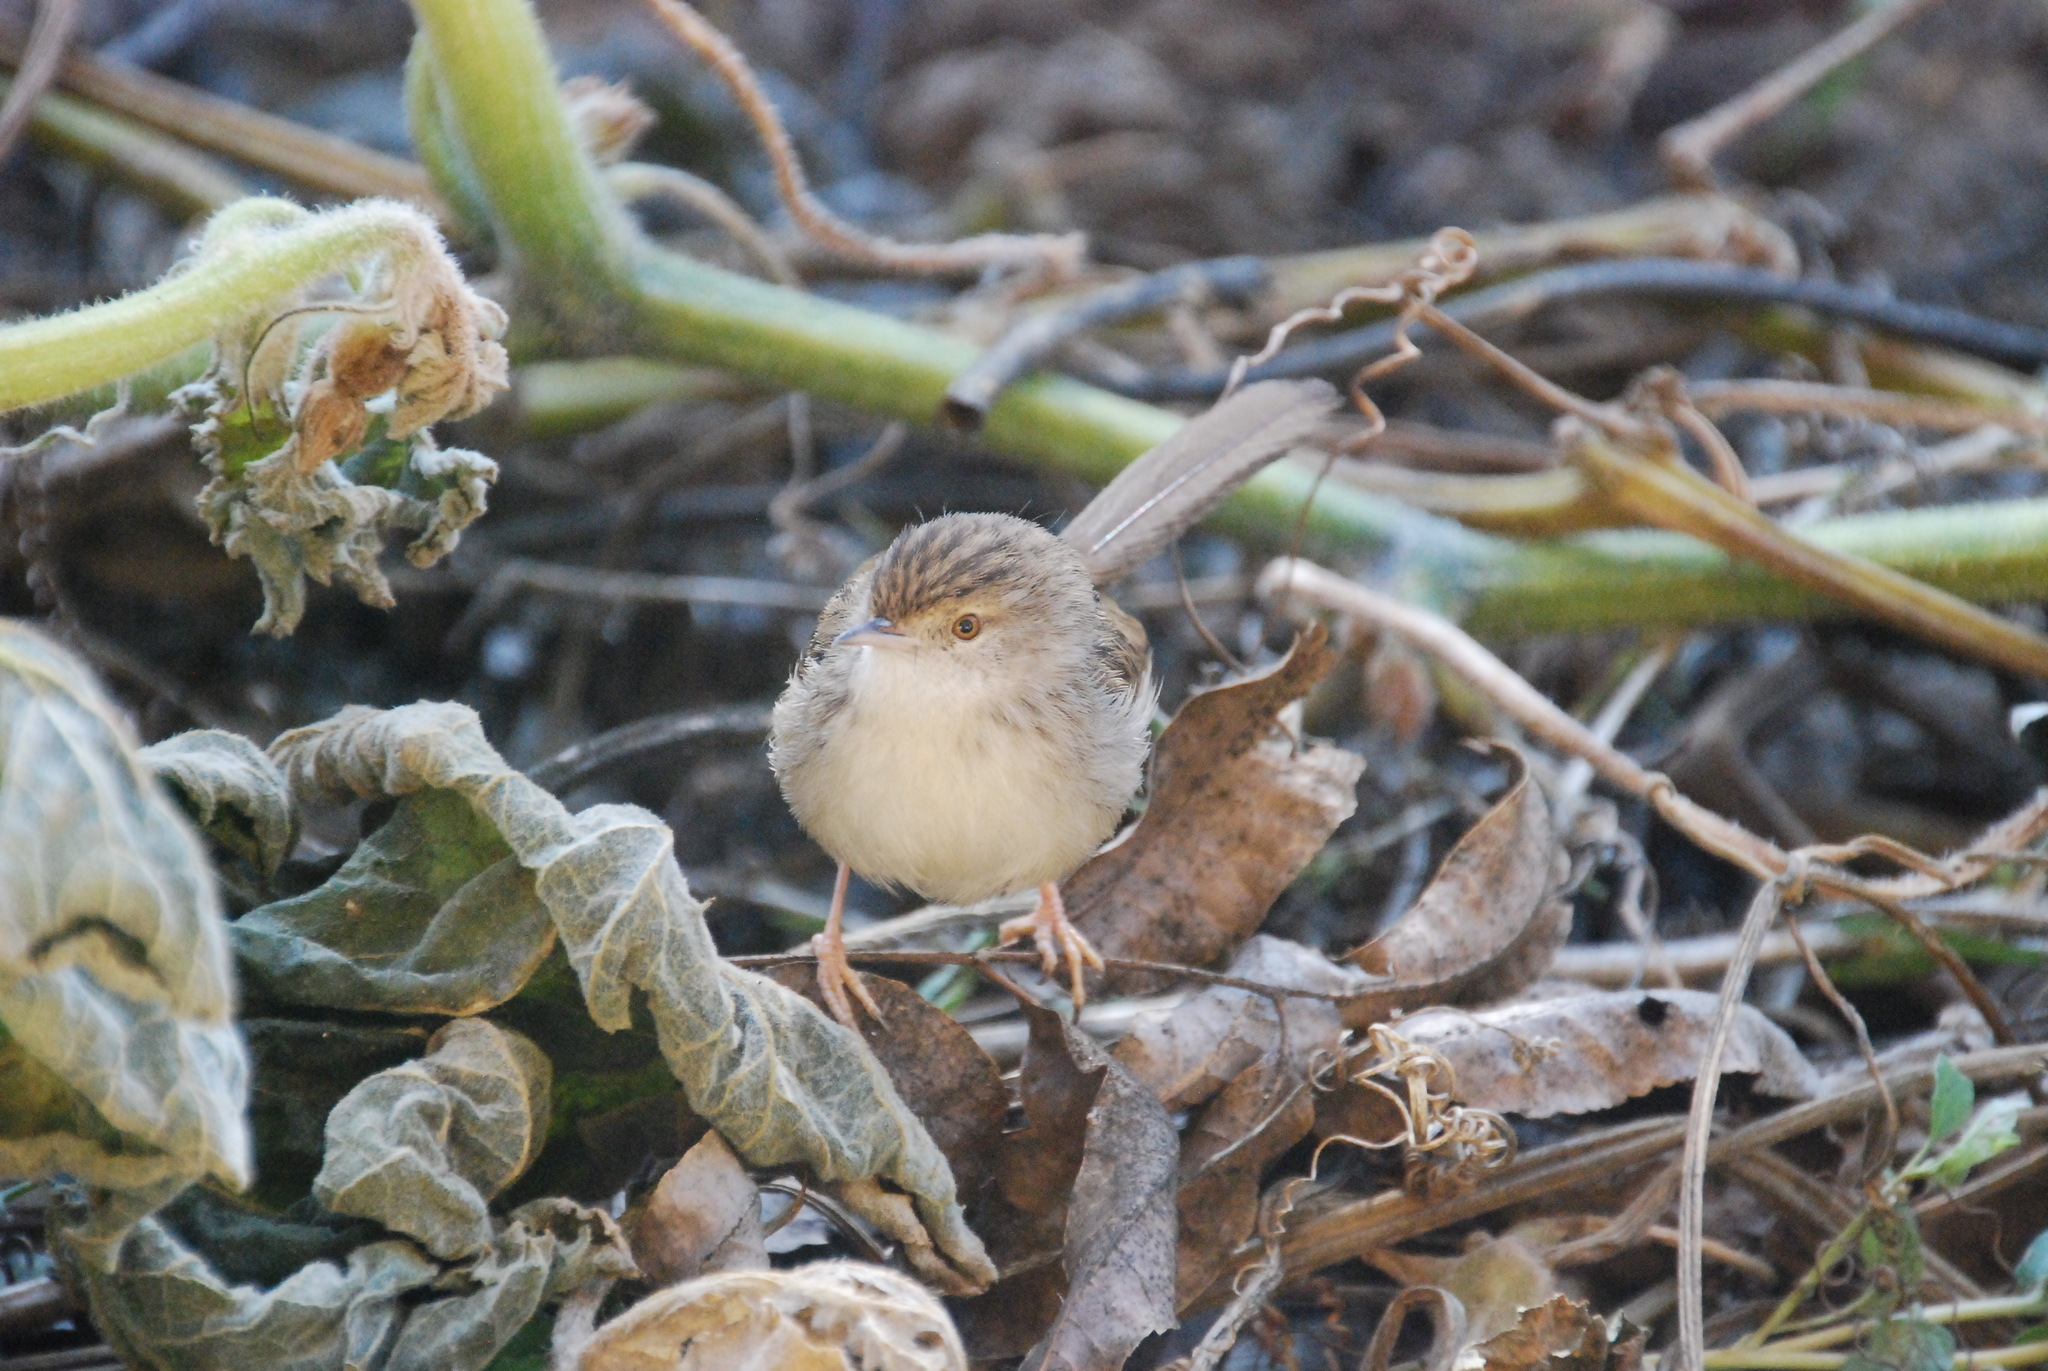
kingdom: Animalia
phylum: Chordata
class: Aves
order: Passeriformes
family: Cisticolidae
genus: Prinia
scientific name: Prinia gracilis
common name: Graceful prinia
